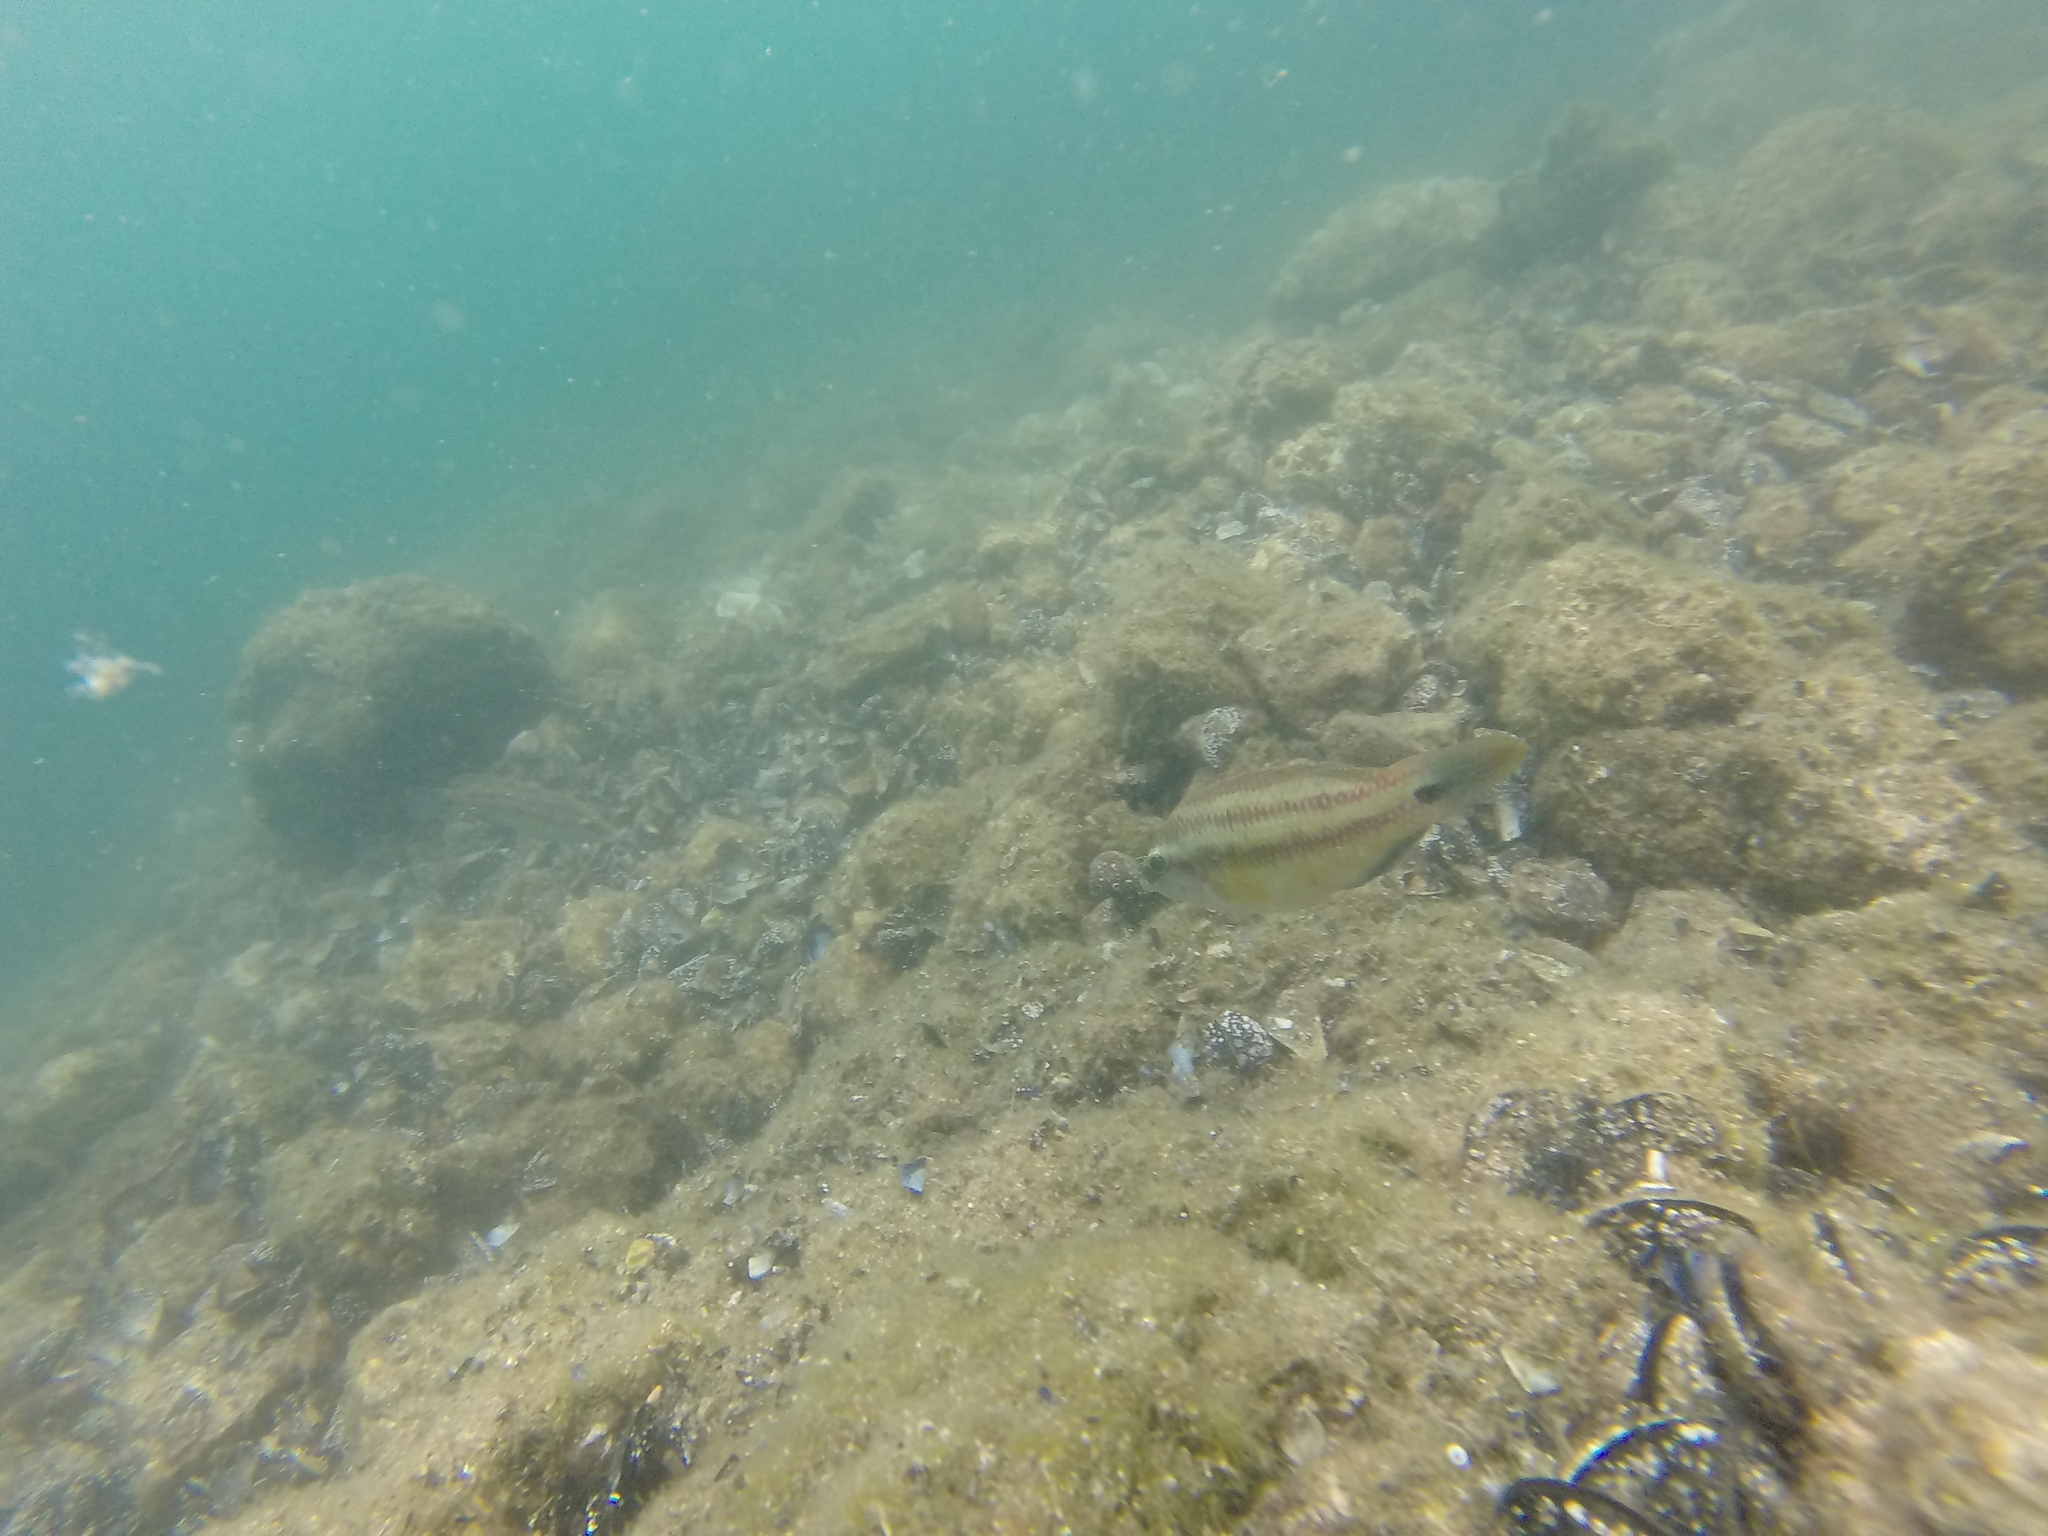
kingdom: Animalia
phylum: Chordata
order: Perciformes
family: Labridae
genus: Symphodus
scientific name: Symphodus tinca
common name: Peacock wrasse
